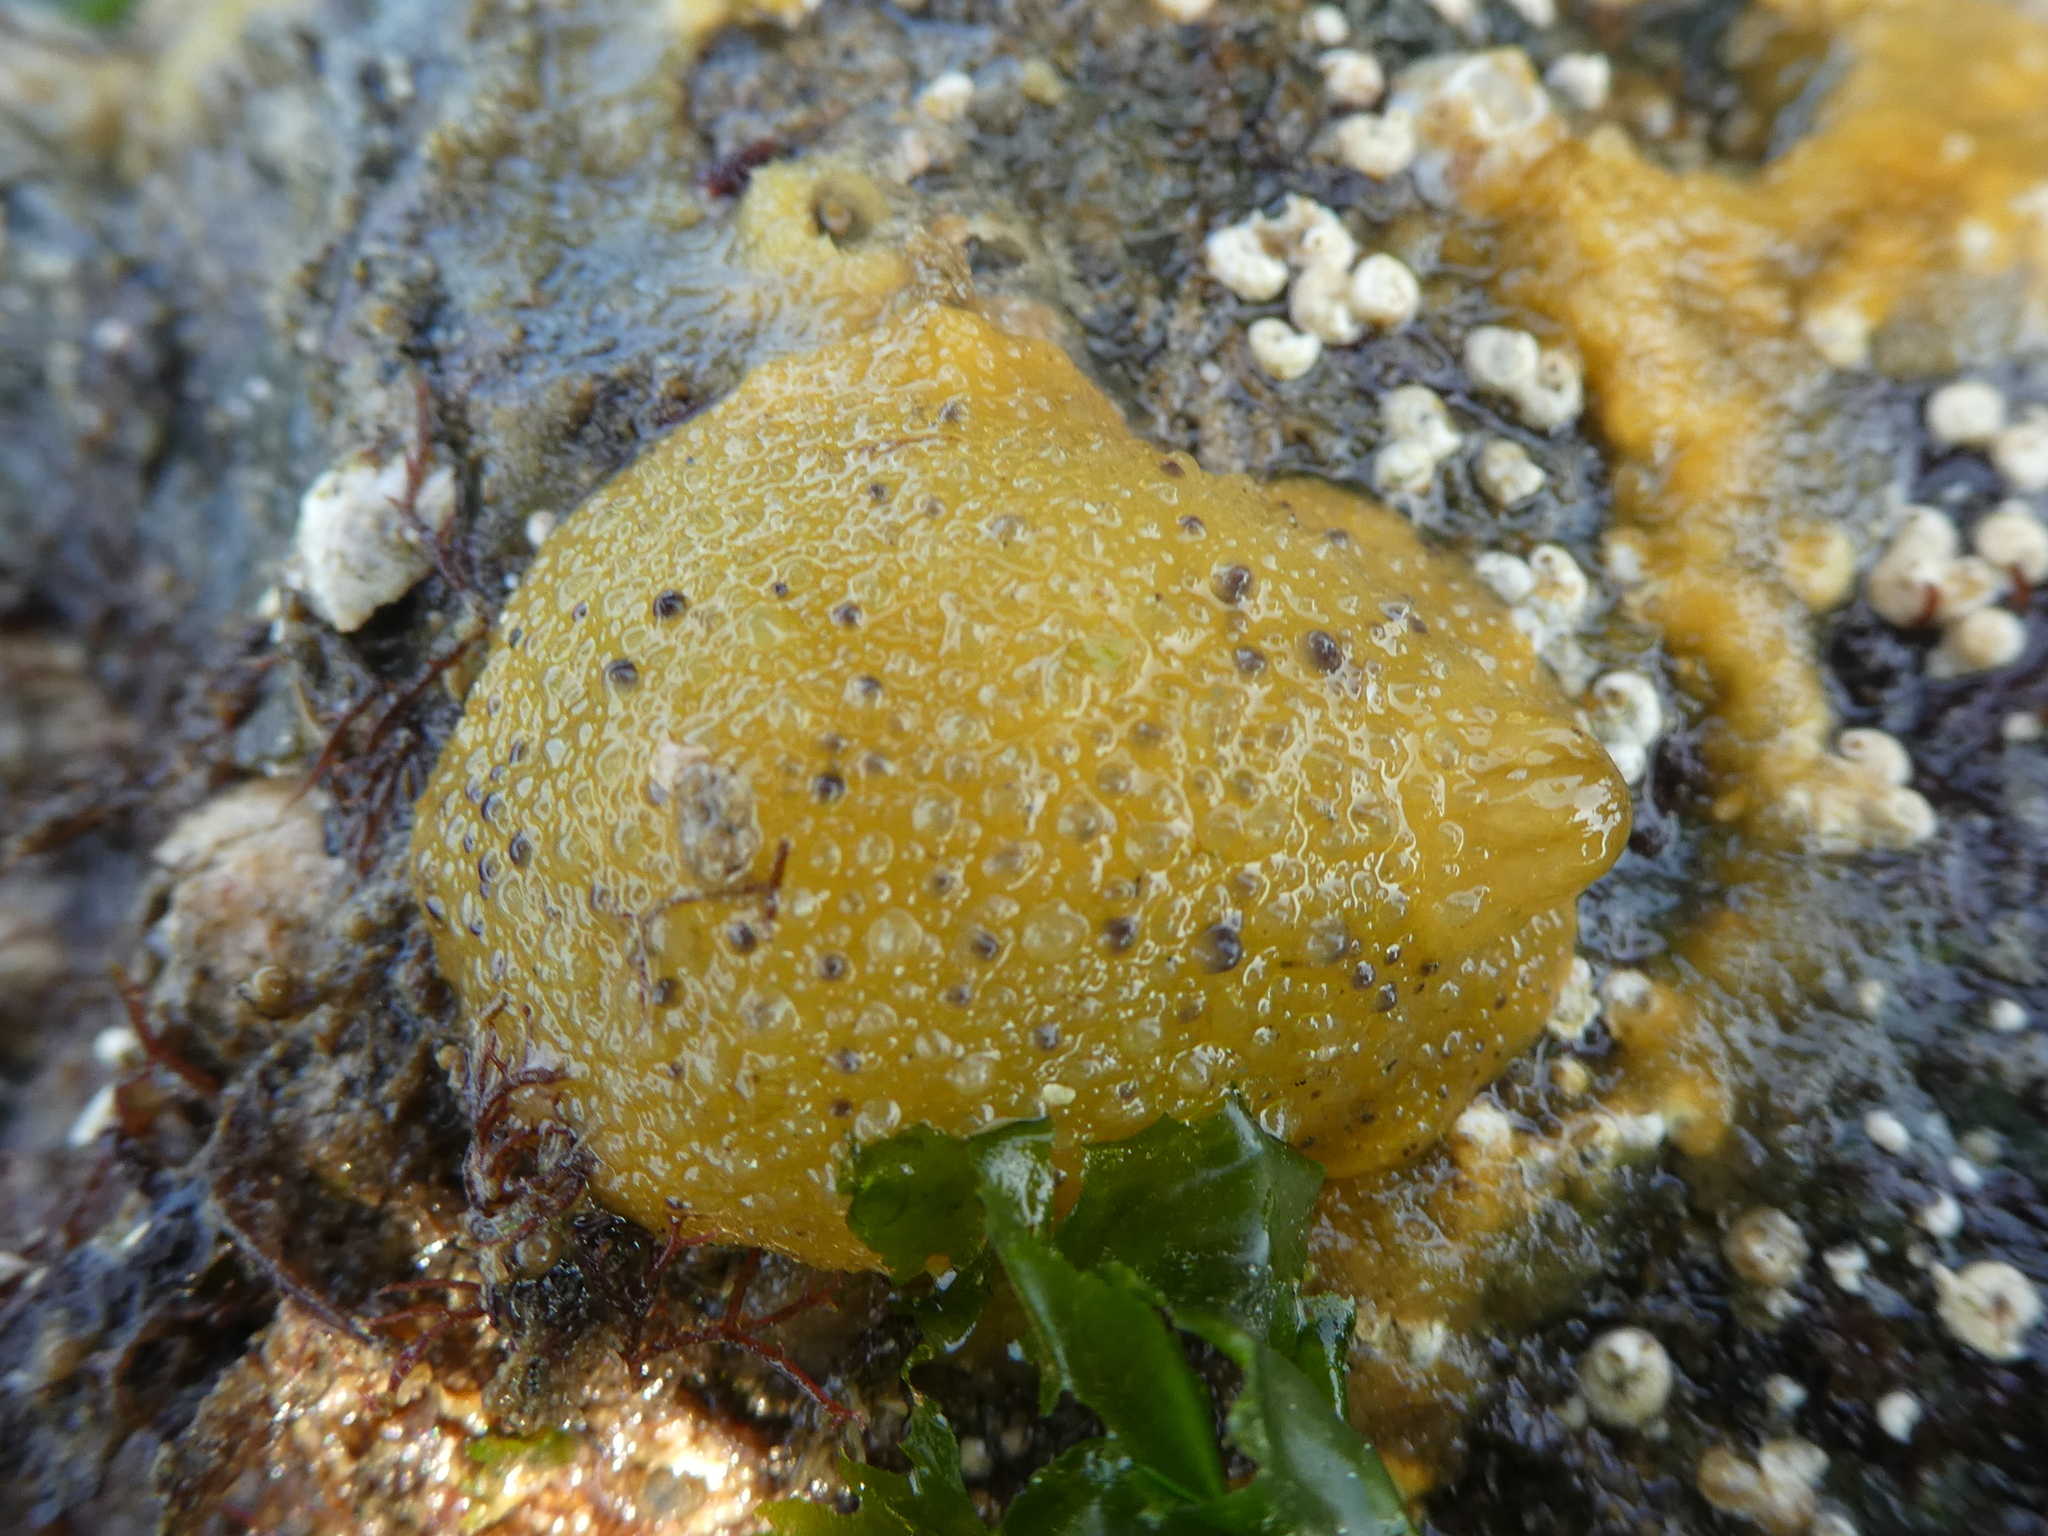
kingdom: Animalia
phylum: Mollusca
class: Gastropoda
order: Nudibranchia
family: Dorididae
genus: Doris
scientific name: Doris montereyensis
